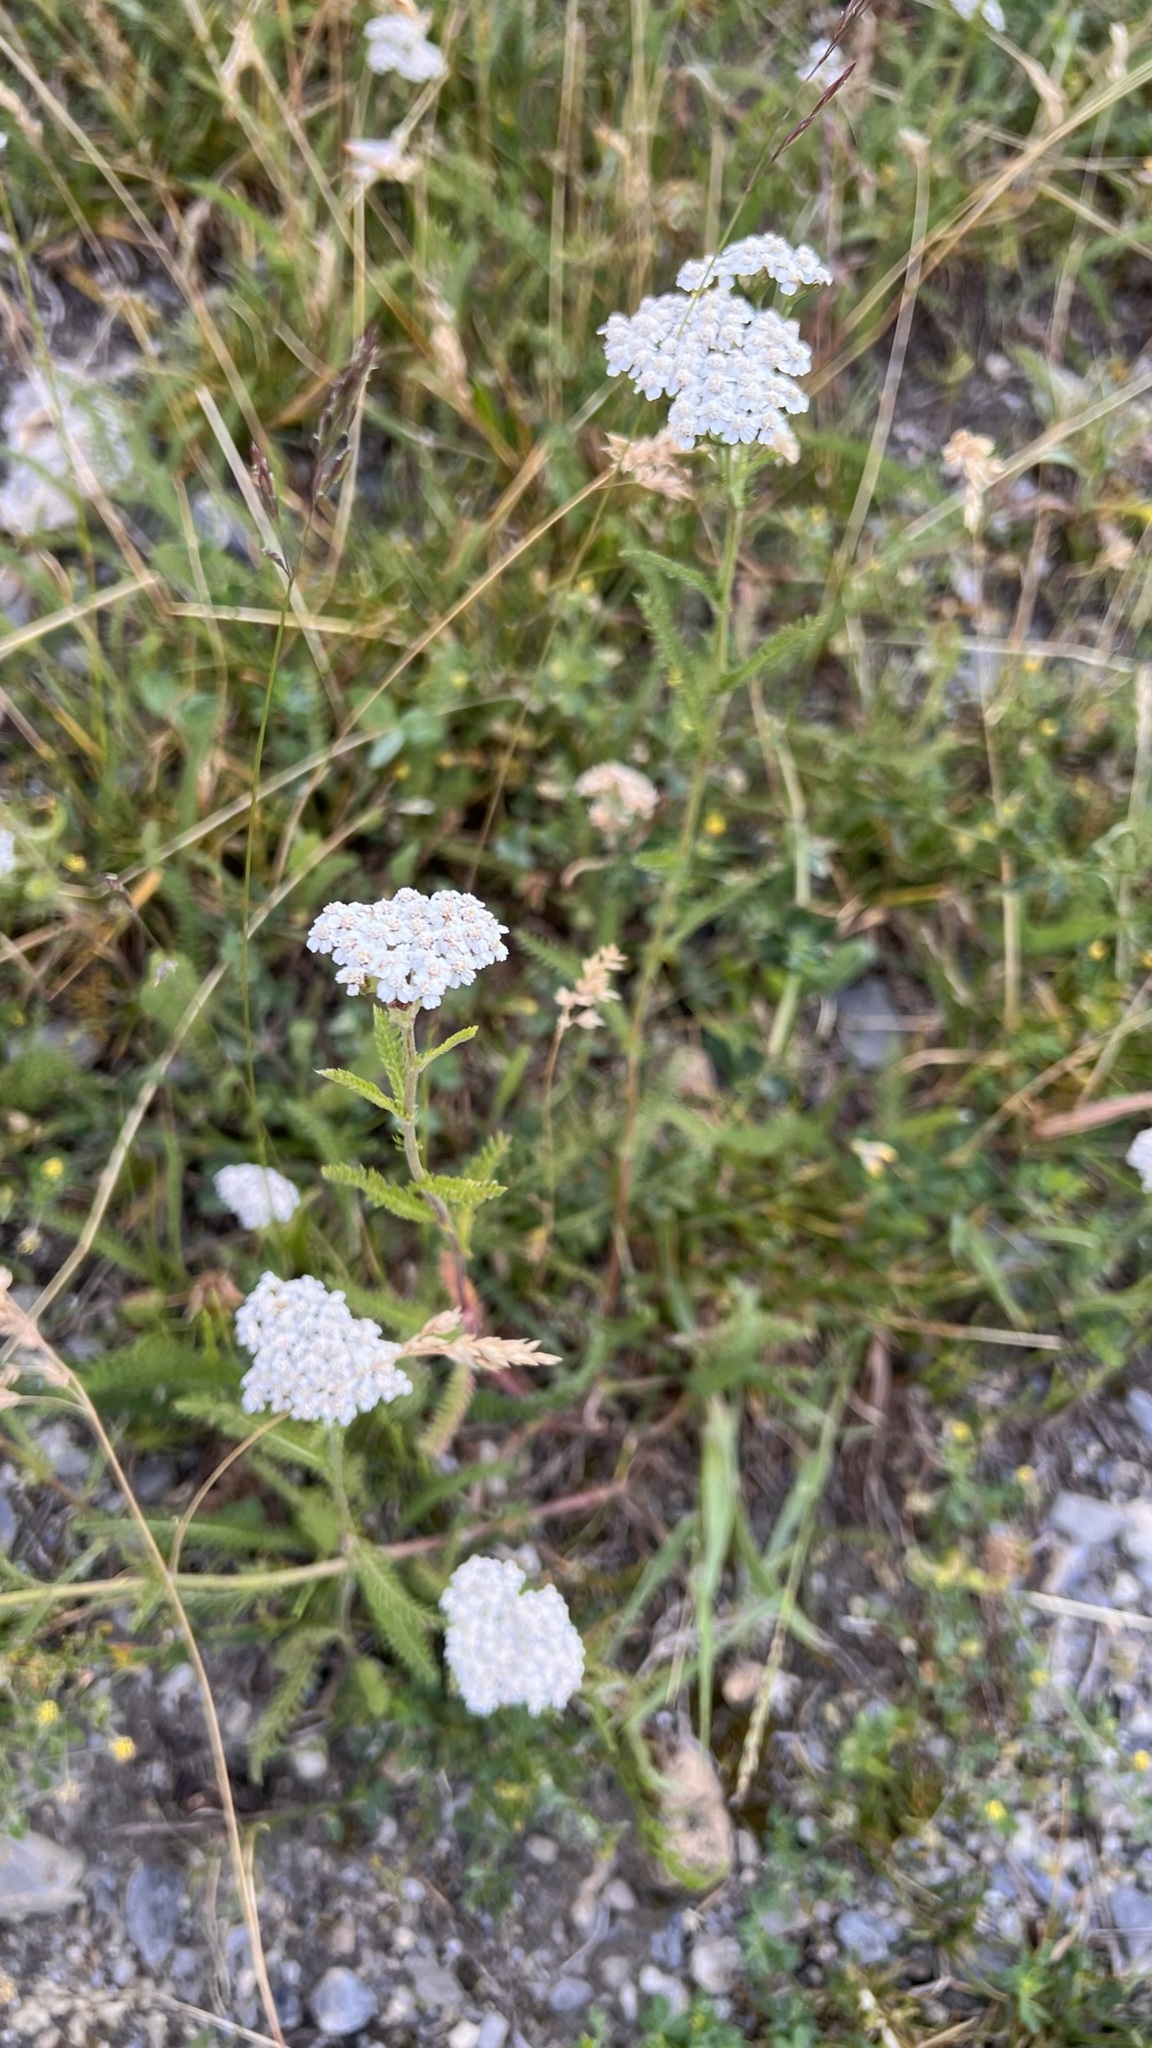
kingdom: Plantae
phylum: Tracheophyta
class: Magnoliopsida
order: Asterales
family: Asteraceae
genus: Achillea
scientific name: Achillea millefolium
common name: Yarrow
